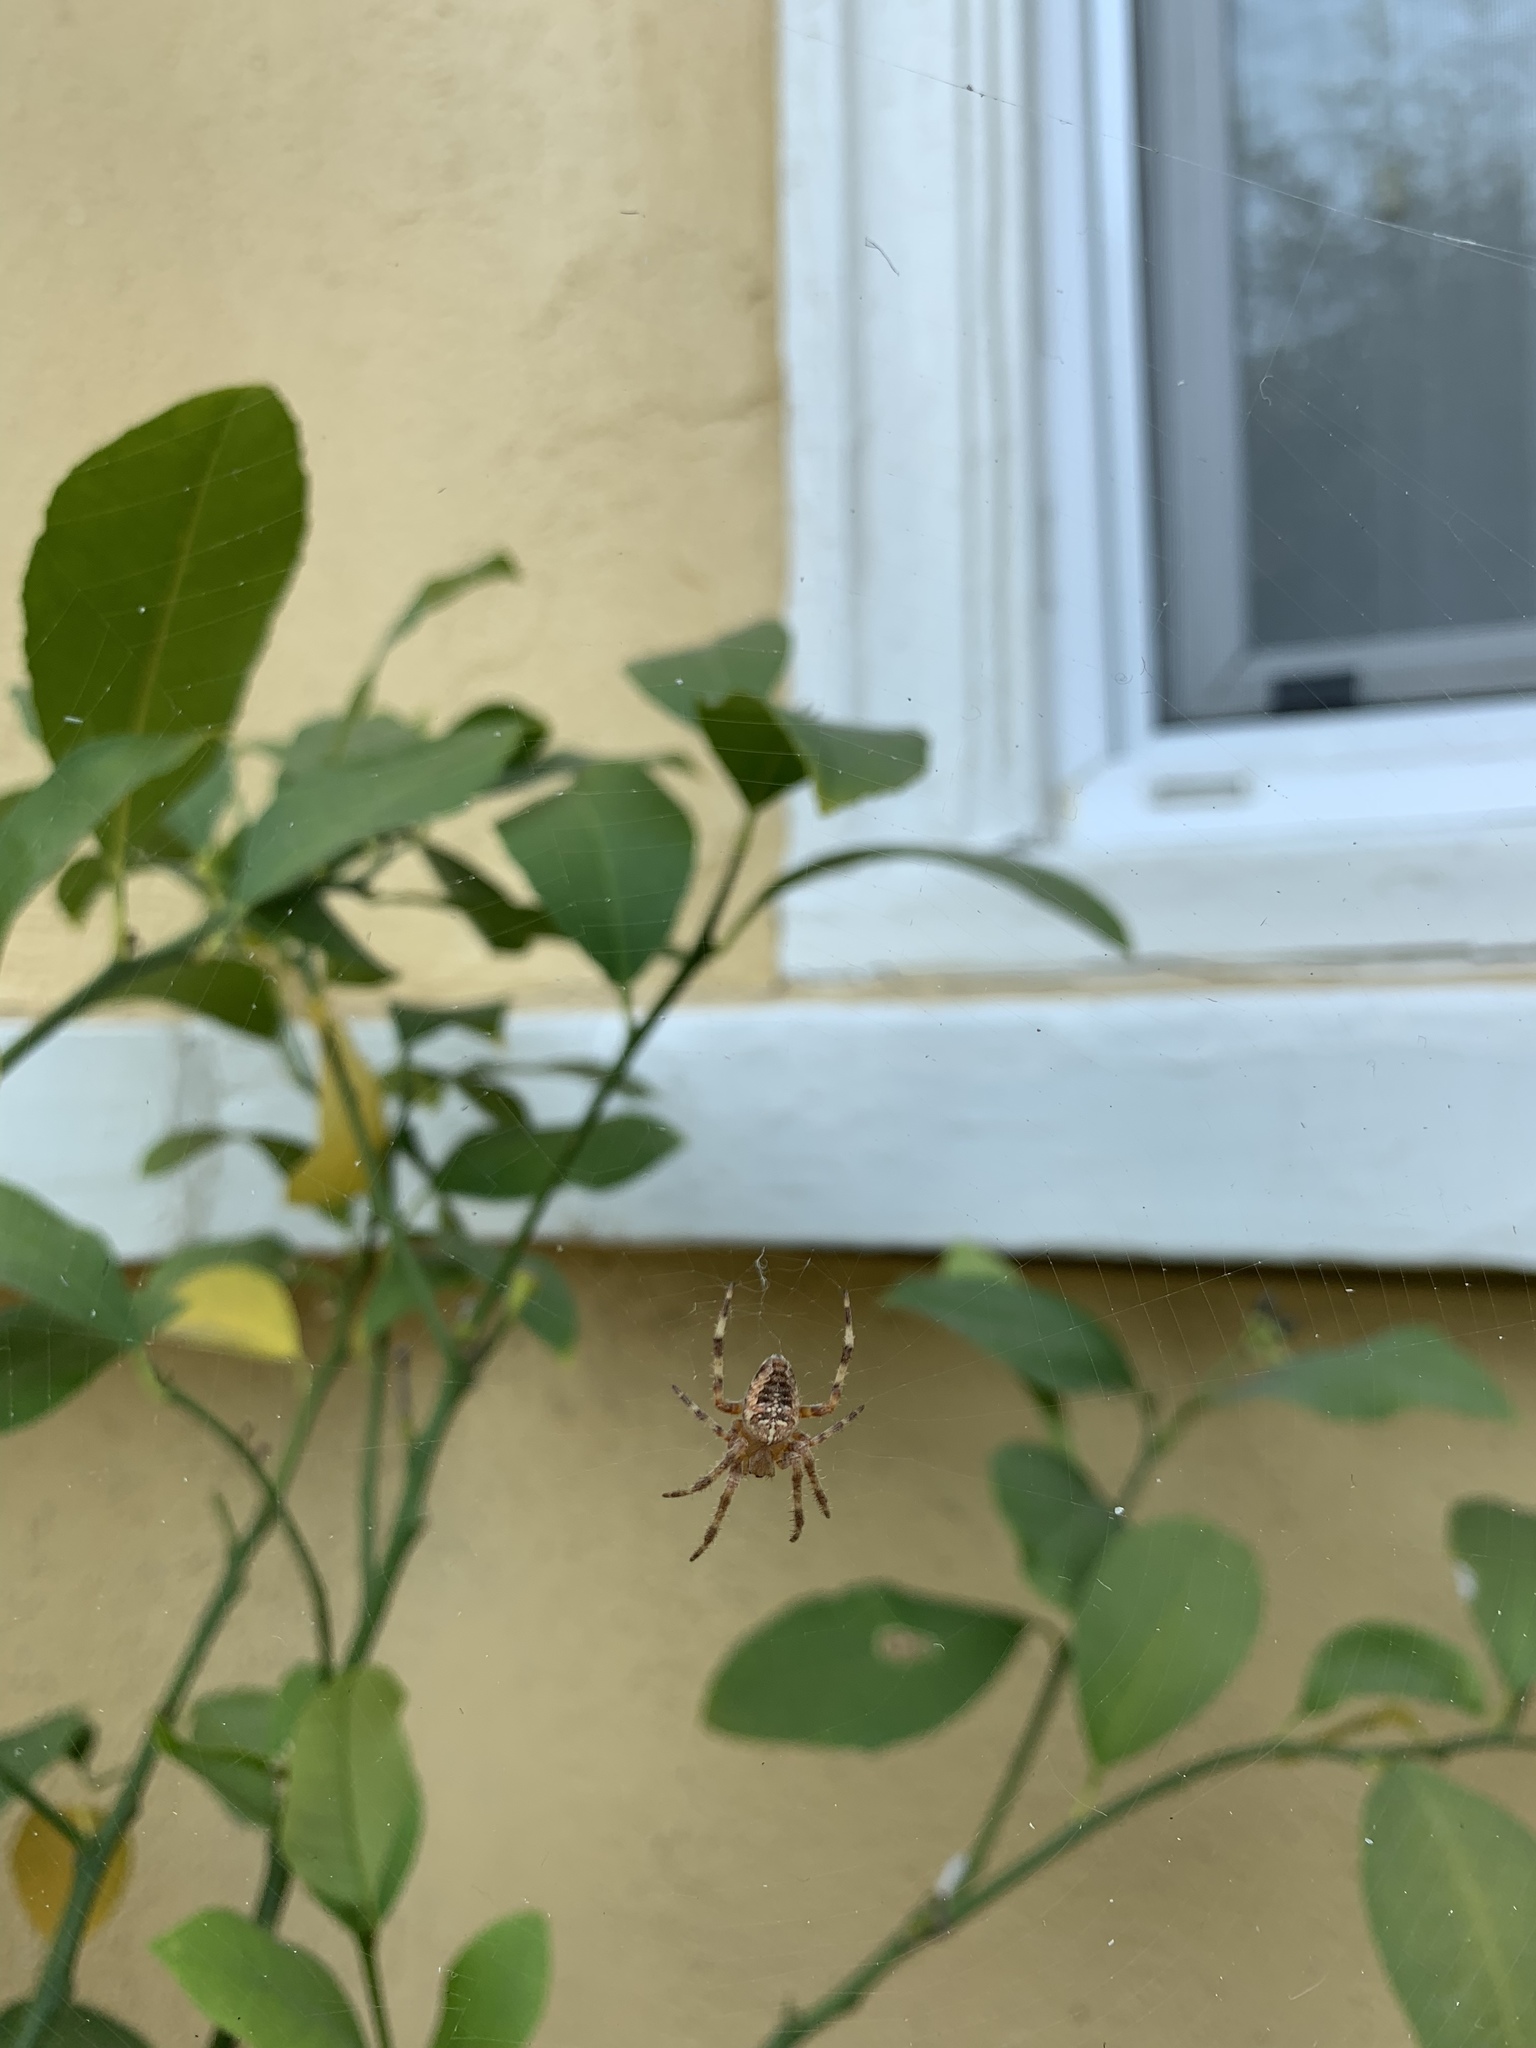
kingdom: Animalia
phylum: Arthropoda
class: Arachnida
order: Araneae
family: Araneidae
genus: Araneus
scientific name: Araneus diadematus
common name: Cross orbweaver
